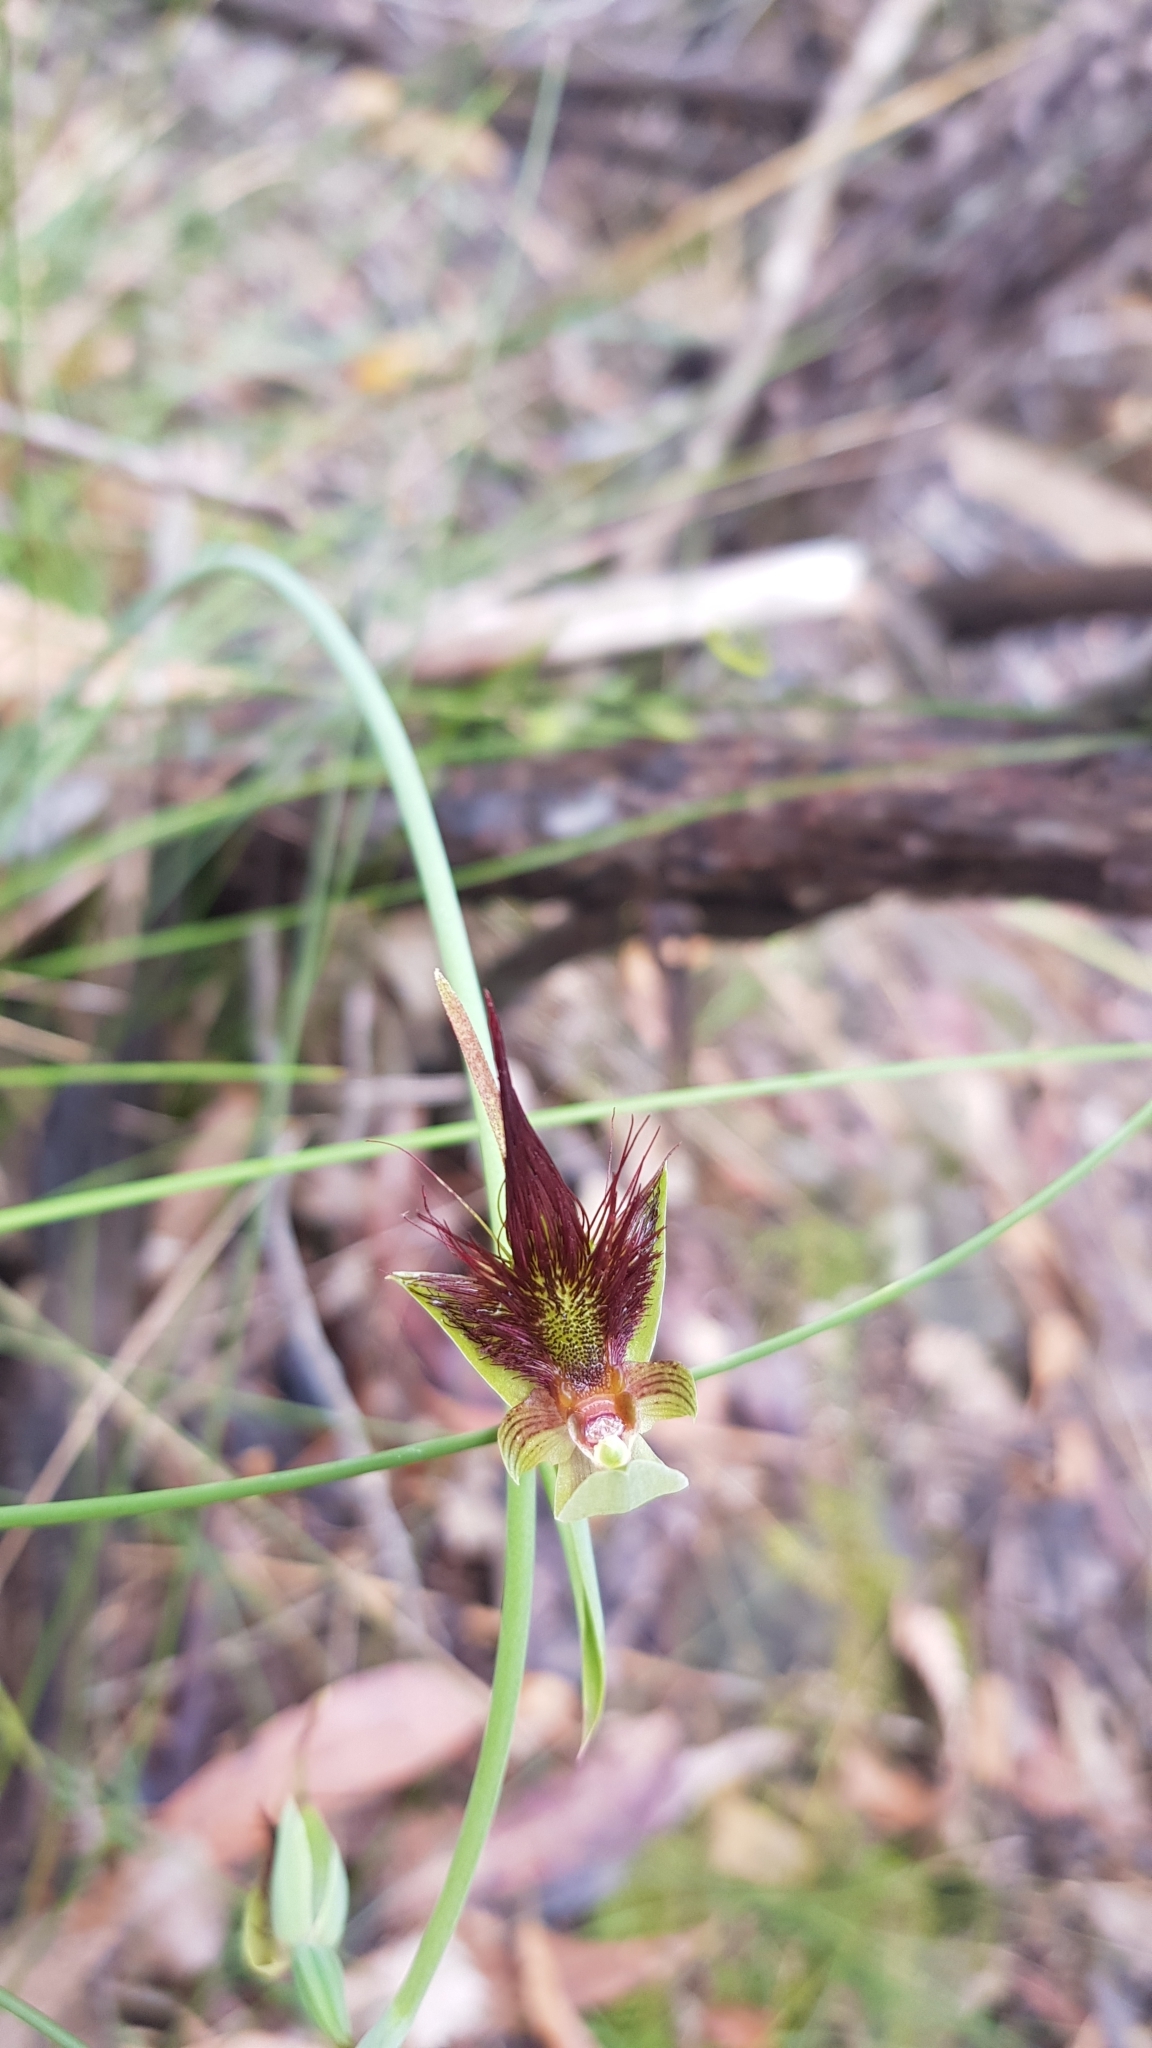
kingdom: Plantae
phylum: Tracheophyta
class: Liliopsida
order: Asparagales
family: Orchidaceae
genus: Calochilus
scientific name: Calochilus paludosus
